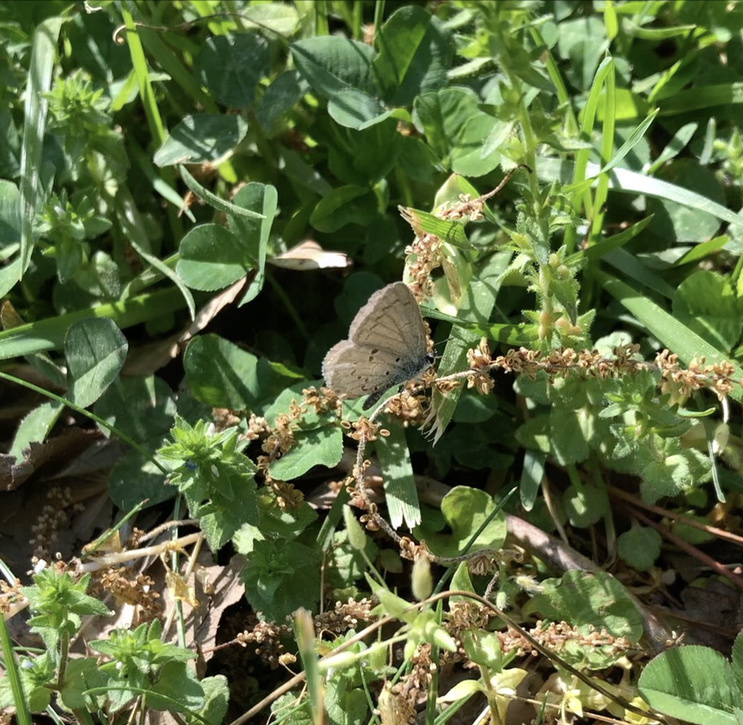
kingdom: Animalia
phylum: Arthropoda
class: Insecta
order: Lepidoptera
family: Lycaenidae
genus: Celastrina
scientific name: Celastrina ladon
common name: Spring azure
